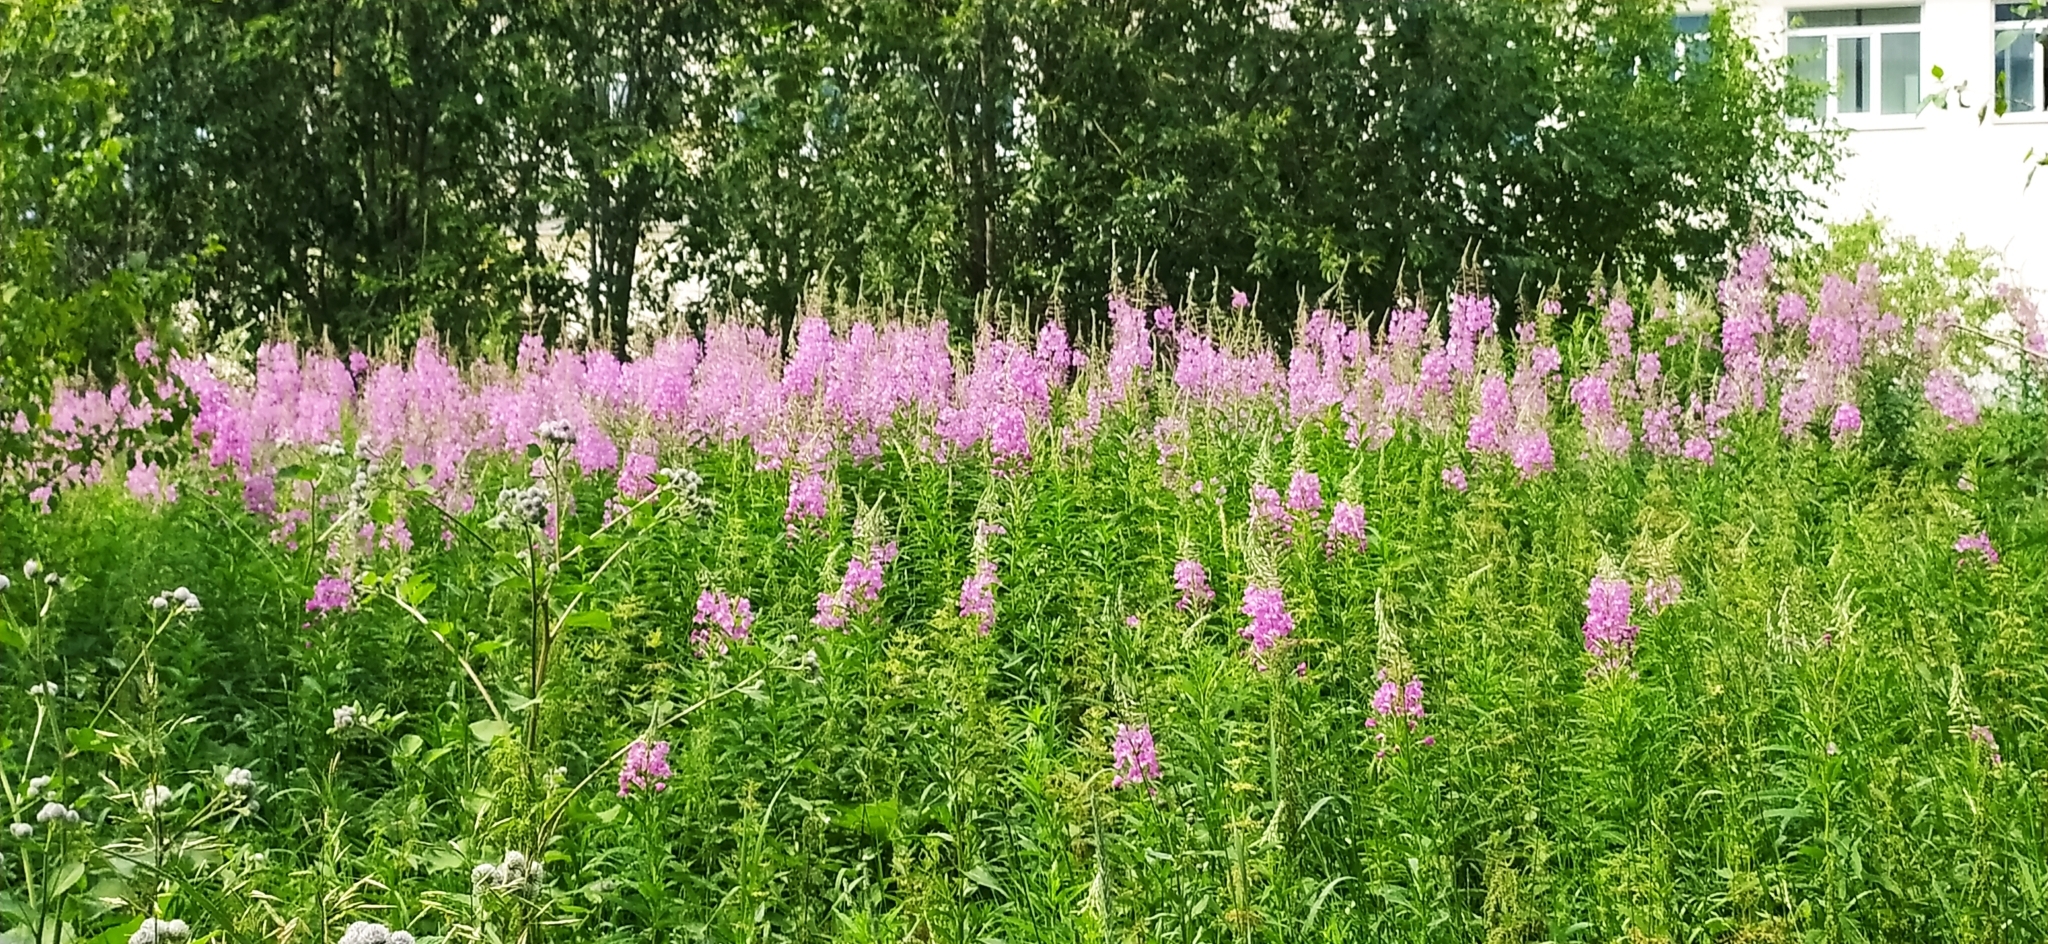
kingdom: Plantae
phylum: Tracheophyta
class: Magnoliopsida
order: Myrtales
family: Onagraceae
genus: Chamaenerion
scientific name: Chamaenerion angustifolium
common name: Fireweed
